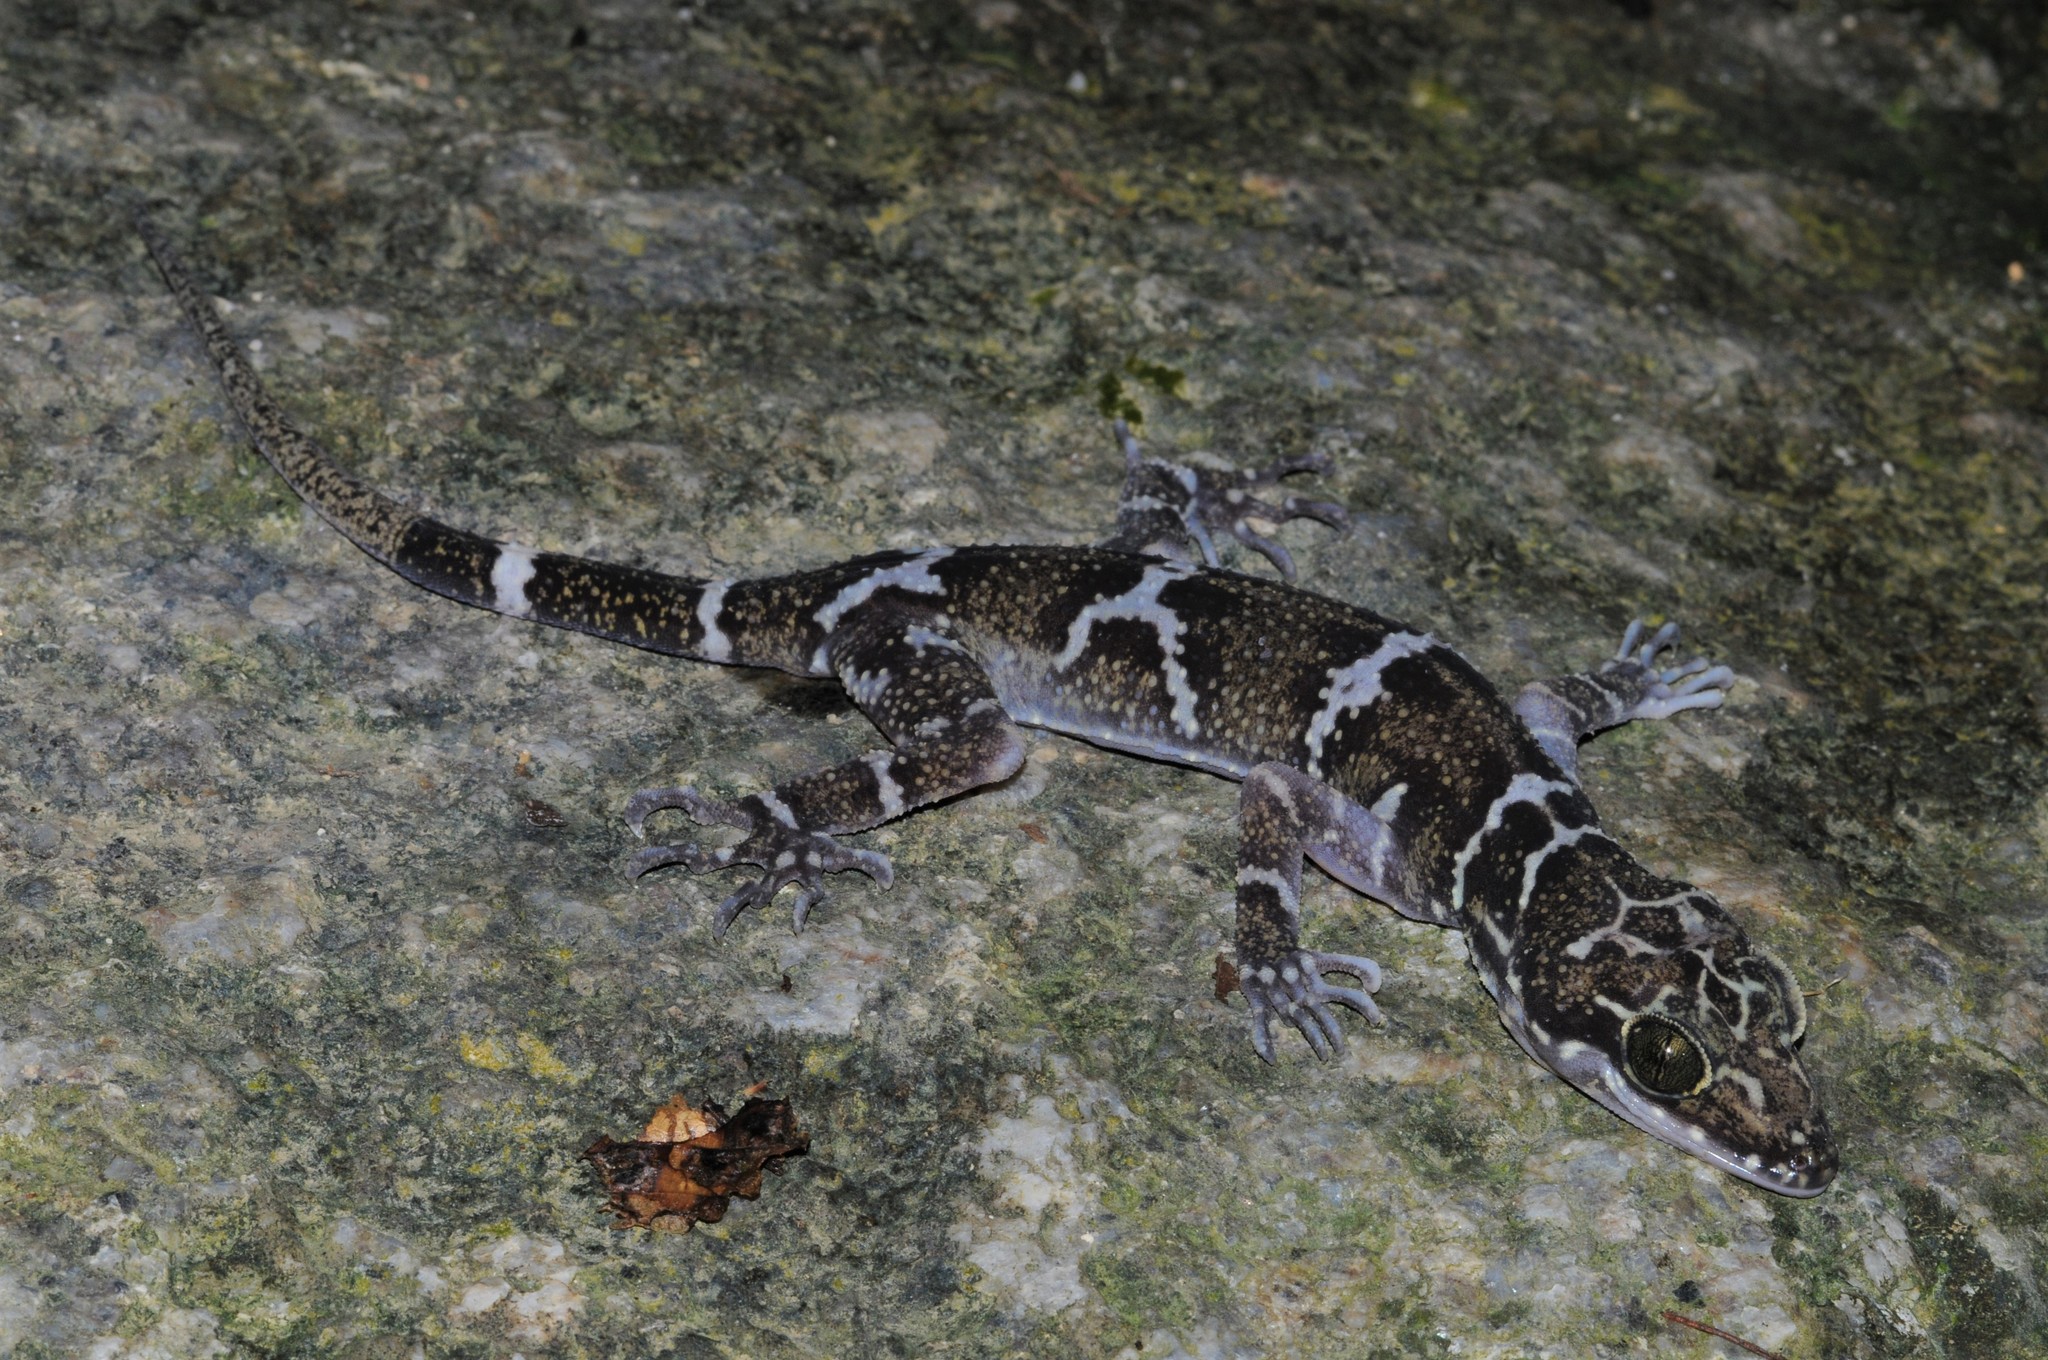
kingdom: Animalia
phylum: Chordata
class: Squamata
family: Gekkonidae
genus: Cyrtodactylus
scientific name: Cyrtodactylus consobrinus
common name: Banded forest gecko
